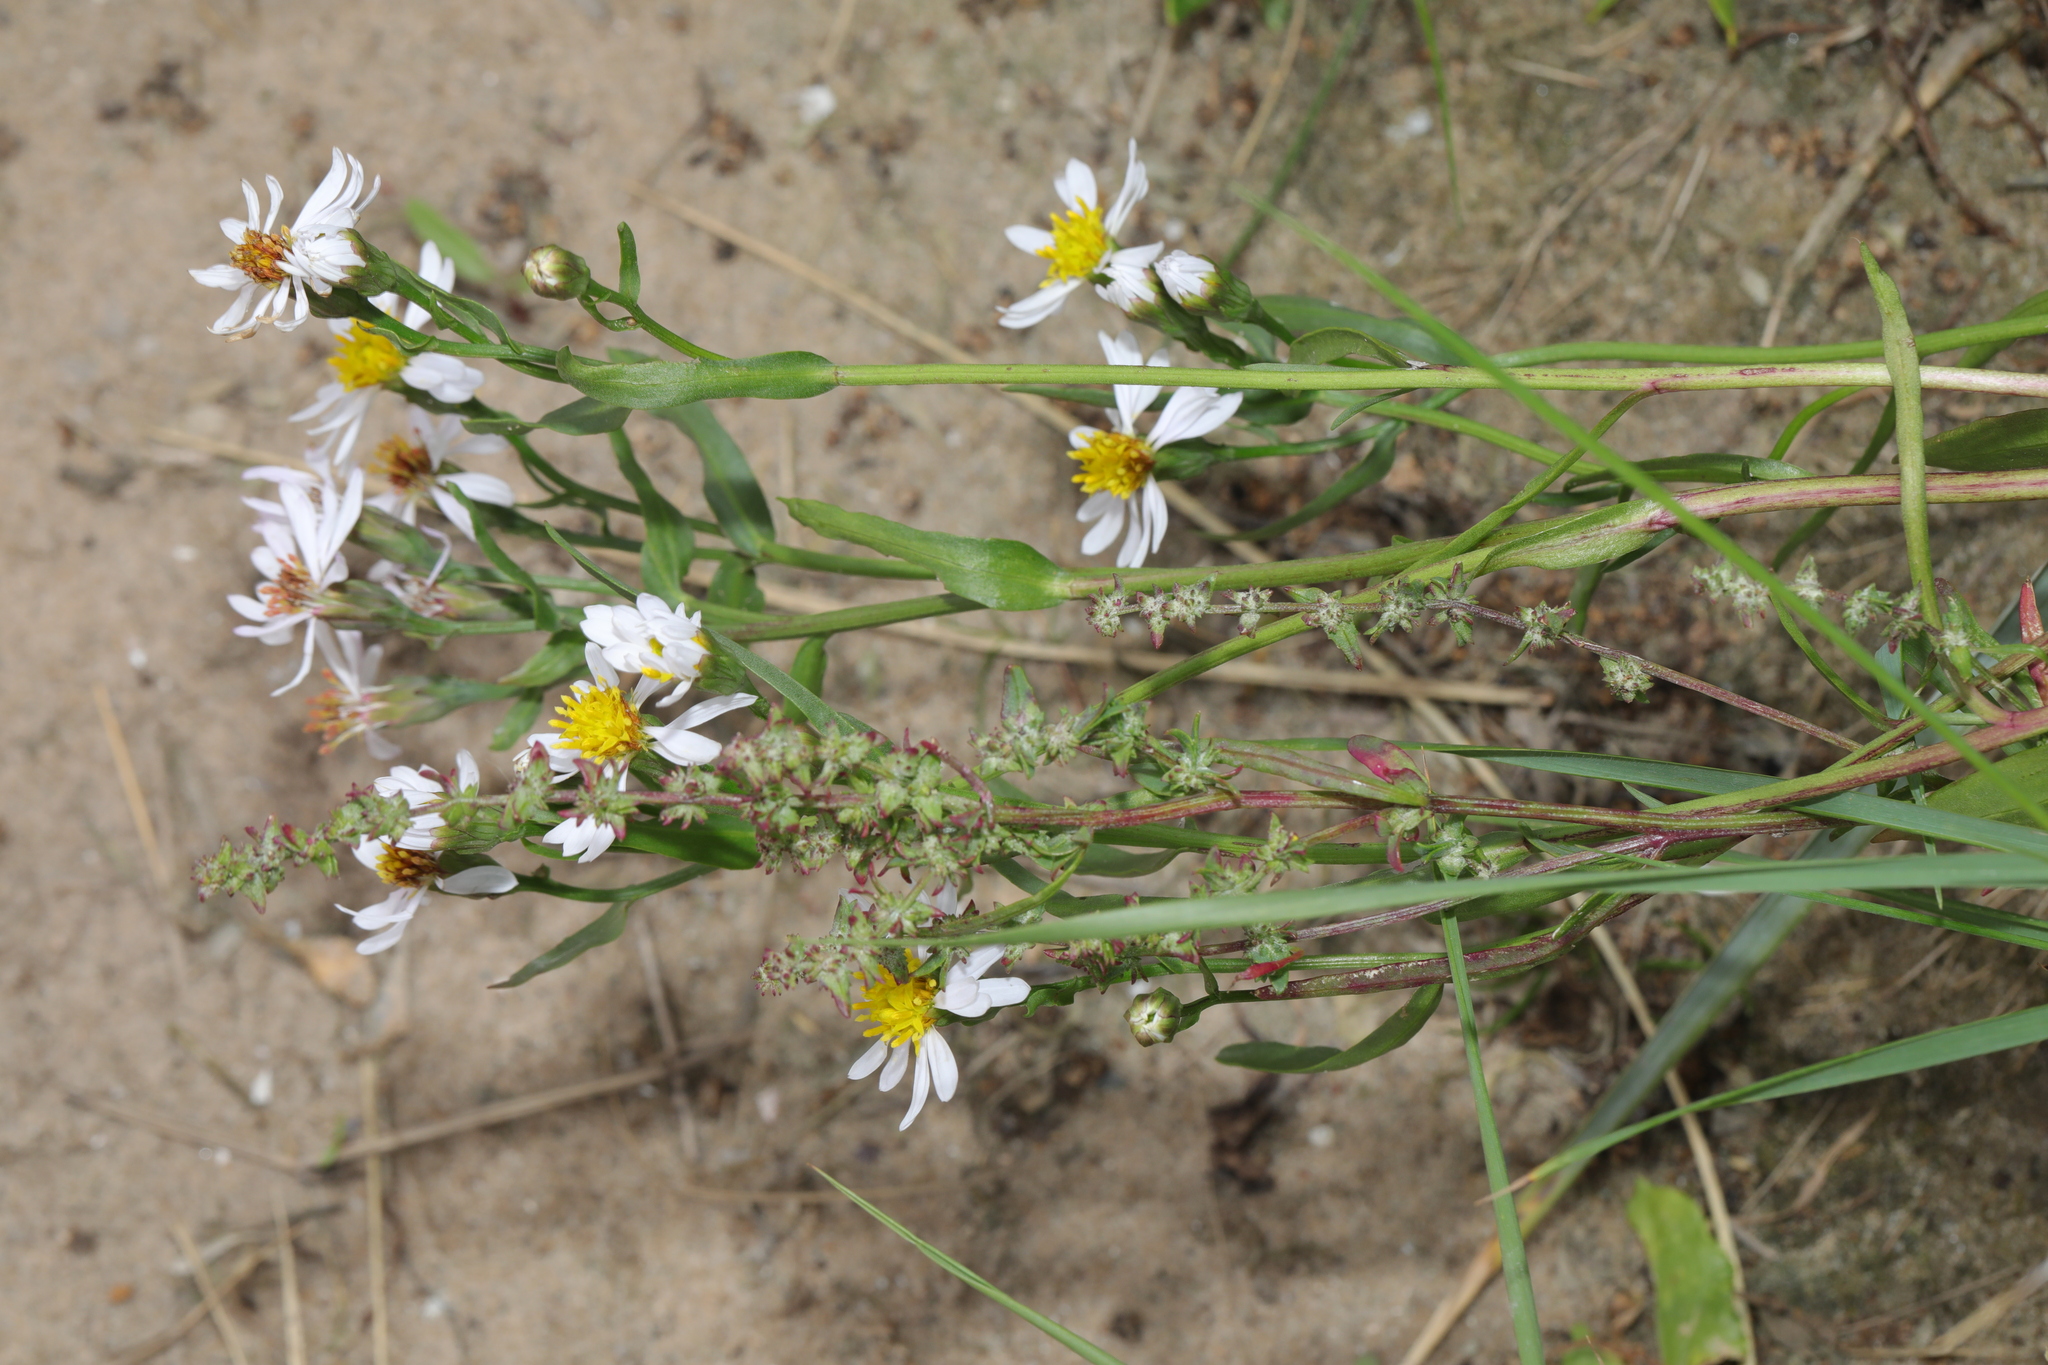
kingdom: Plantae
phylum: Tracheophyta
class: Magnoliopsida
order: Asterales
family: Asteraceae
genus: Tripolium
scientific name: Tripolium pannonicum
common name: Sea aster
